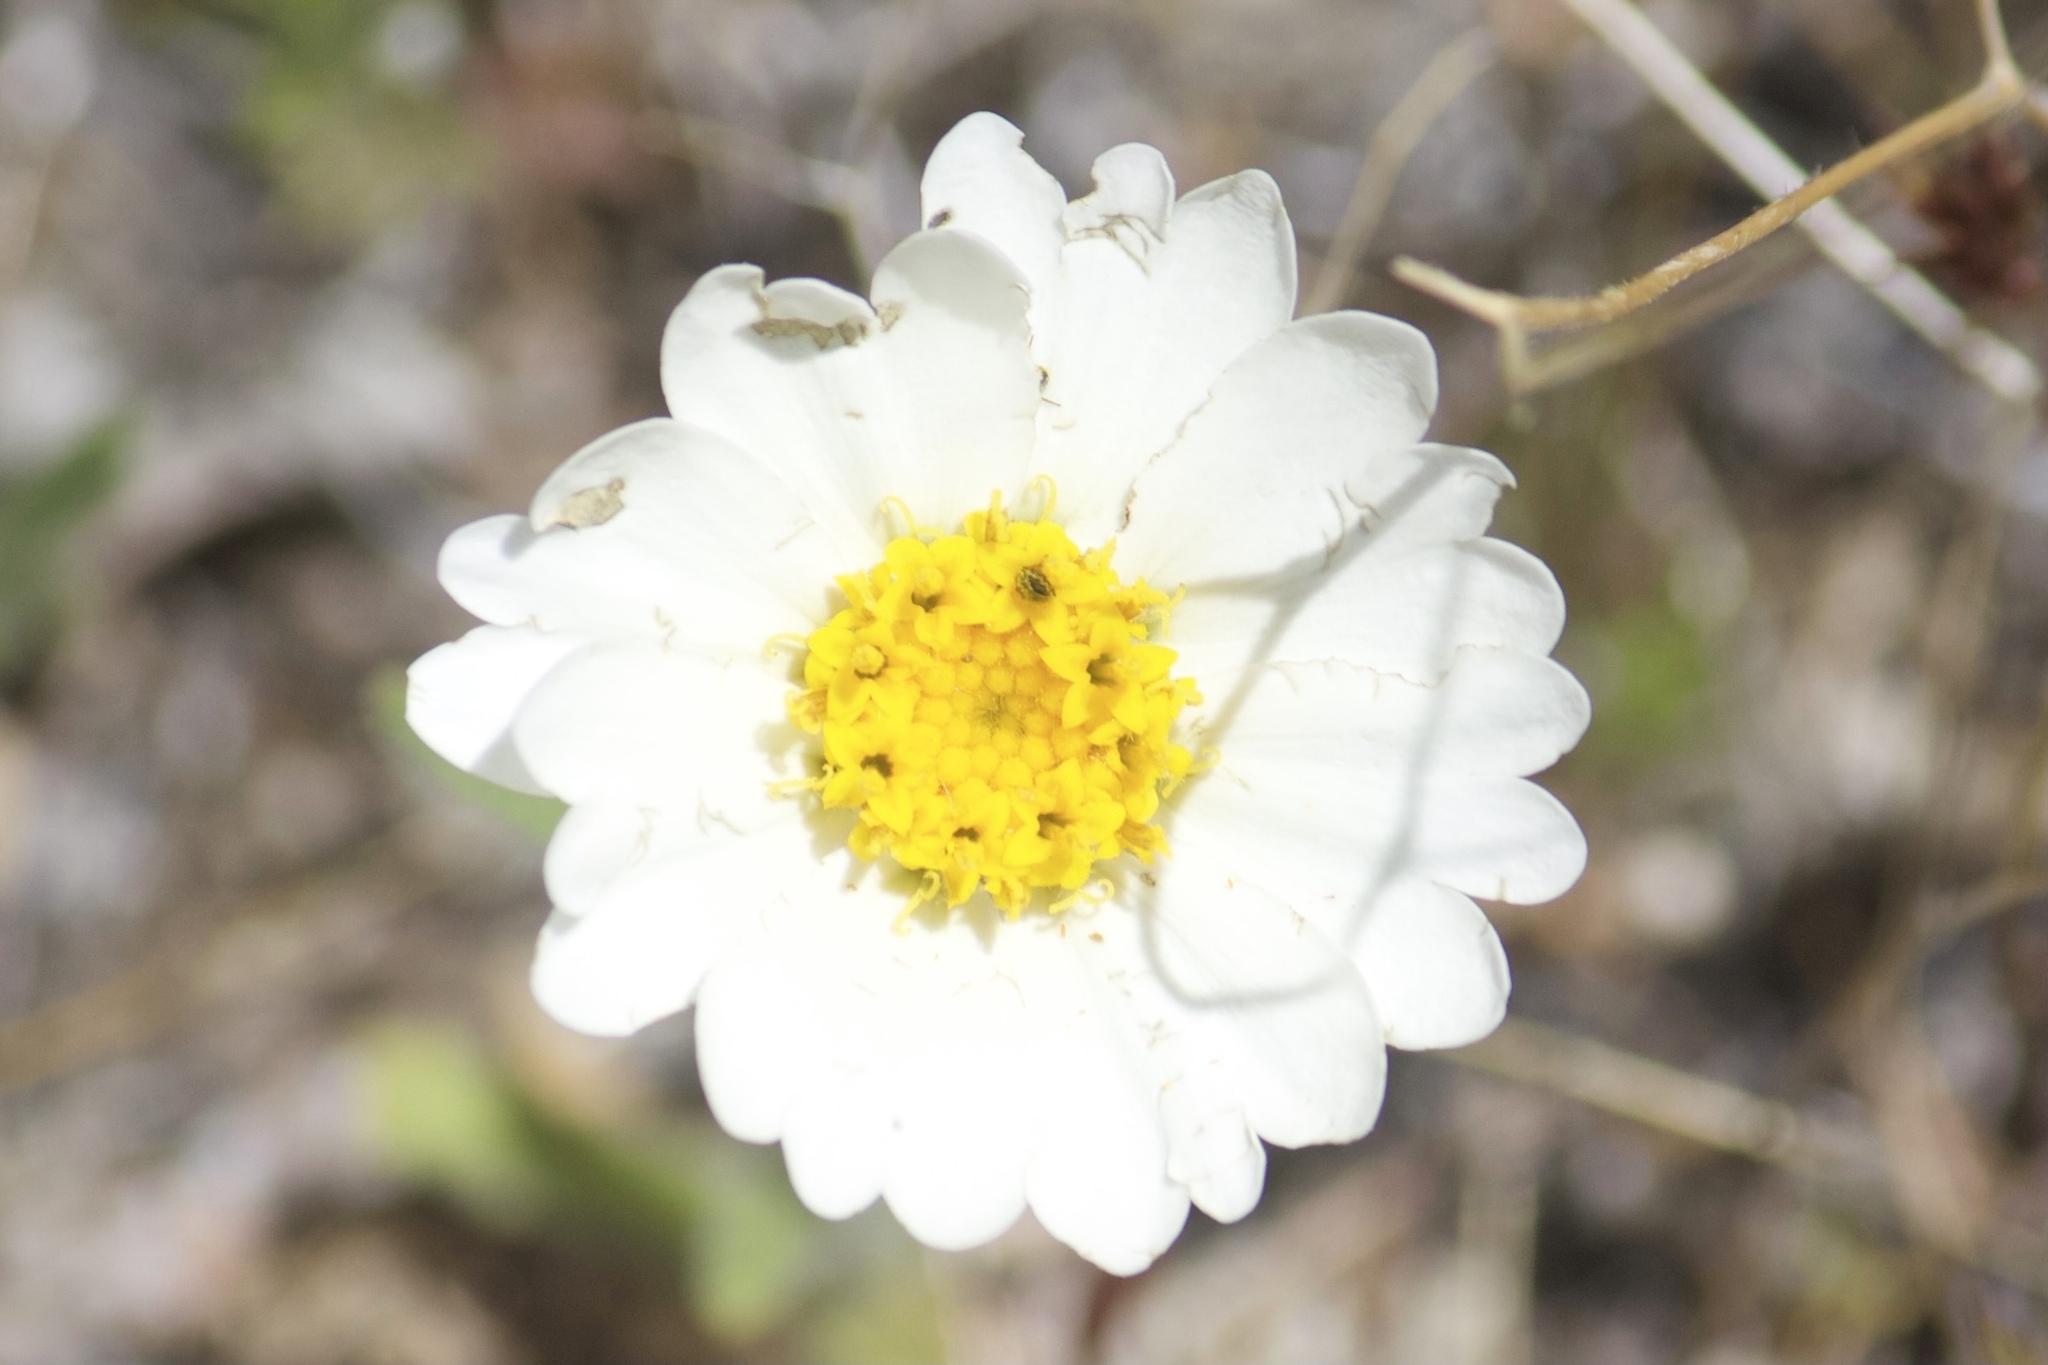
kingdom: Plantae
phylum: Tracheophyta
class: Magnoliopsida
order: Asterales
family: Asteraceae
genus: Layia
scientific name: Layia glandulosa
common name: White layia
